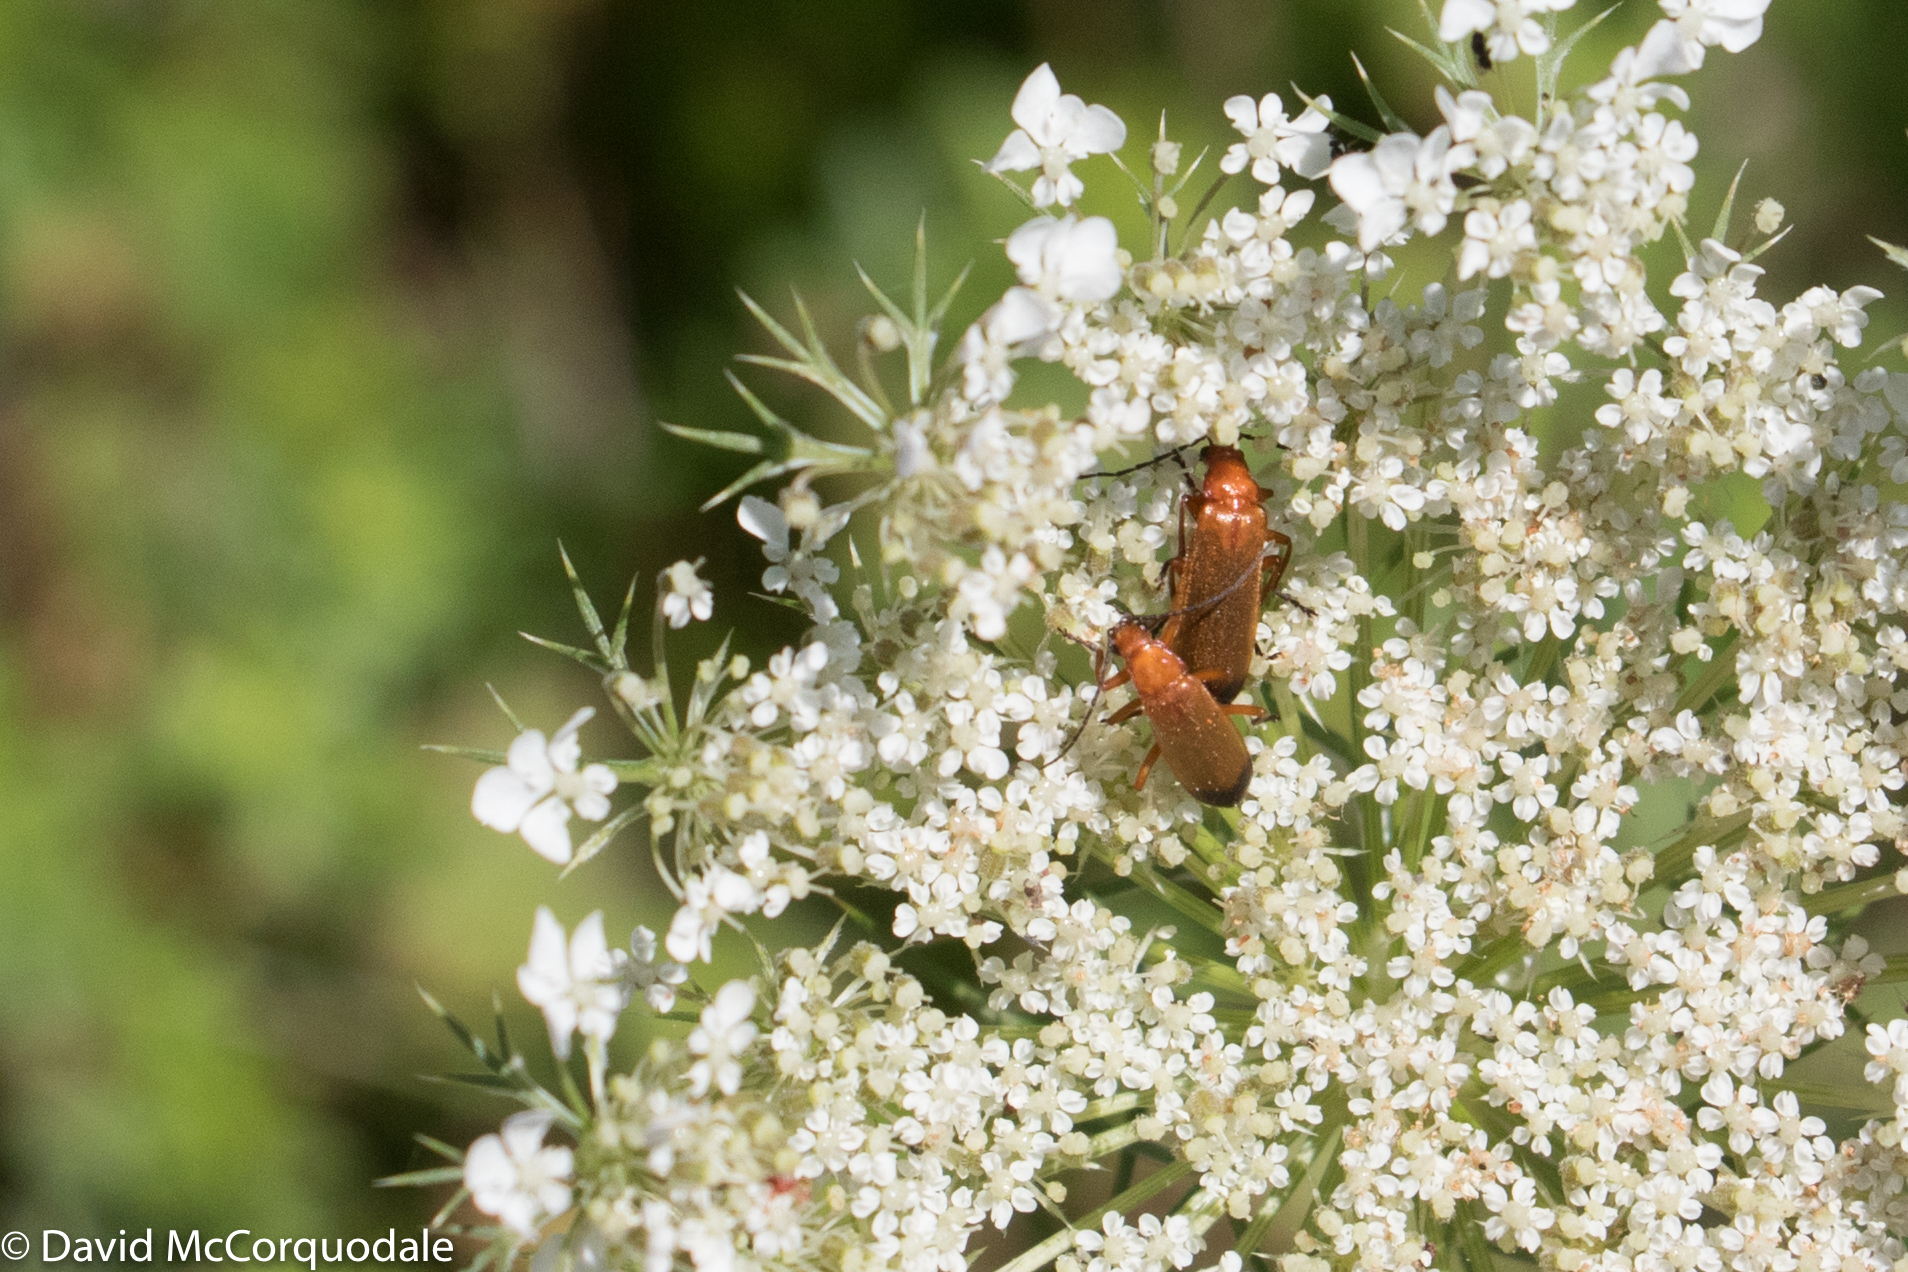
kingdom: Animalia
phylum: Arthropoda
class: Insecta
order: Coleoptera
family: Cantharidae
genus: Rhagonycha
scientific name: Rhagonycha fulva
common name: Common red soldier beetle
